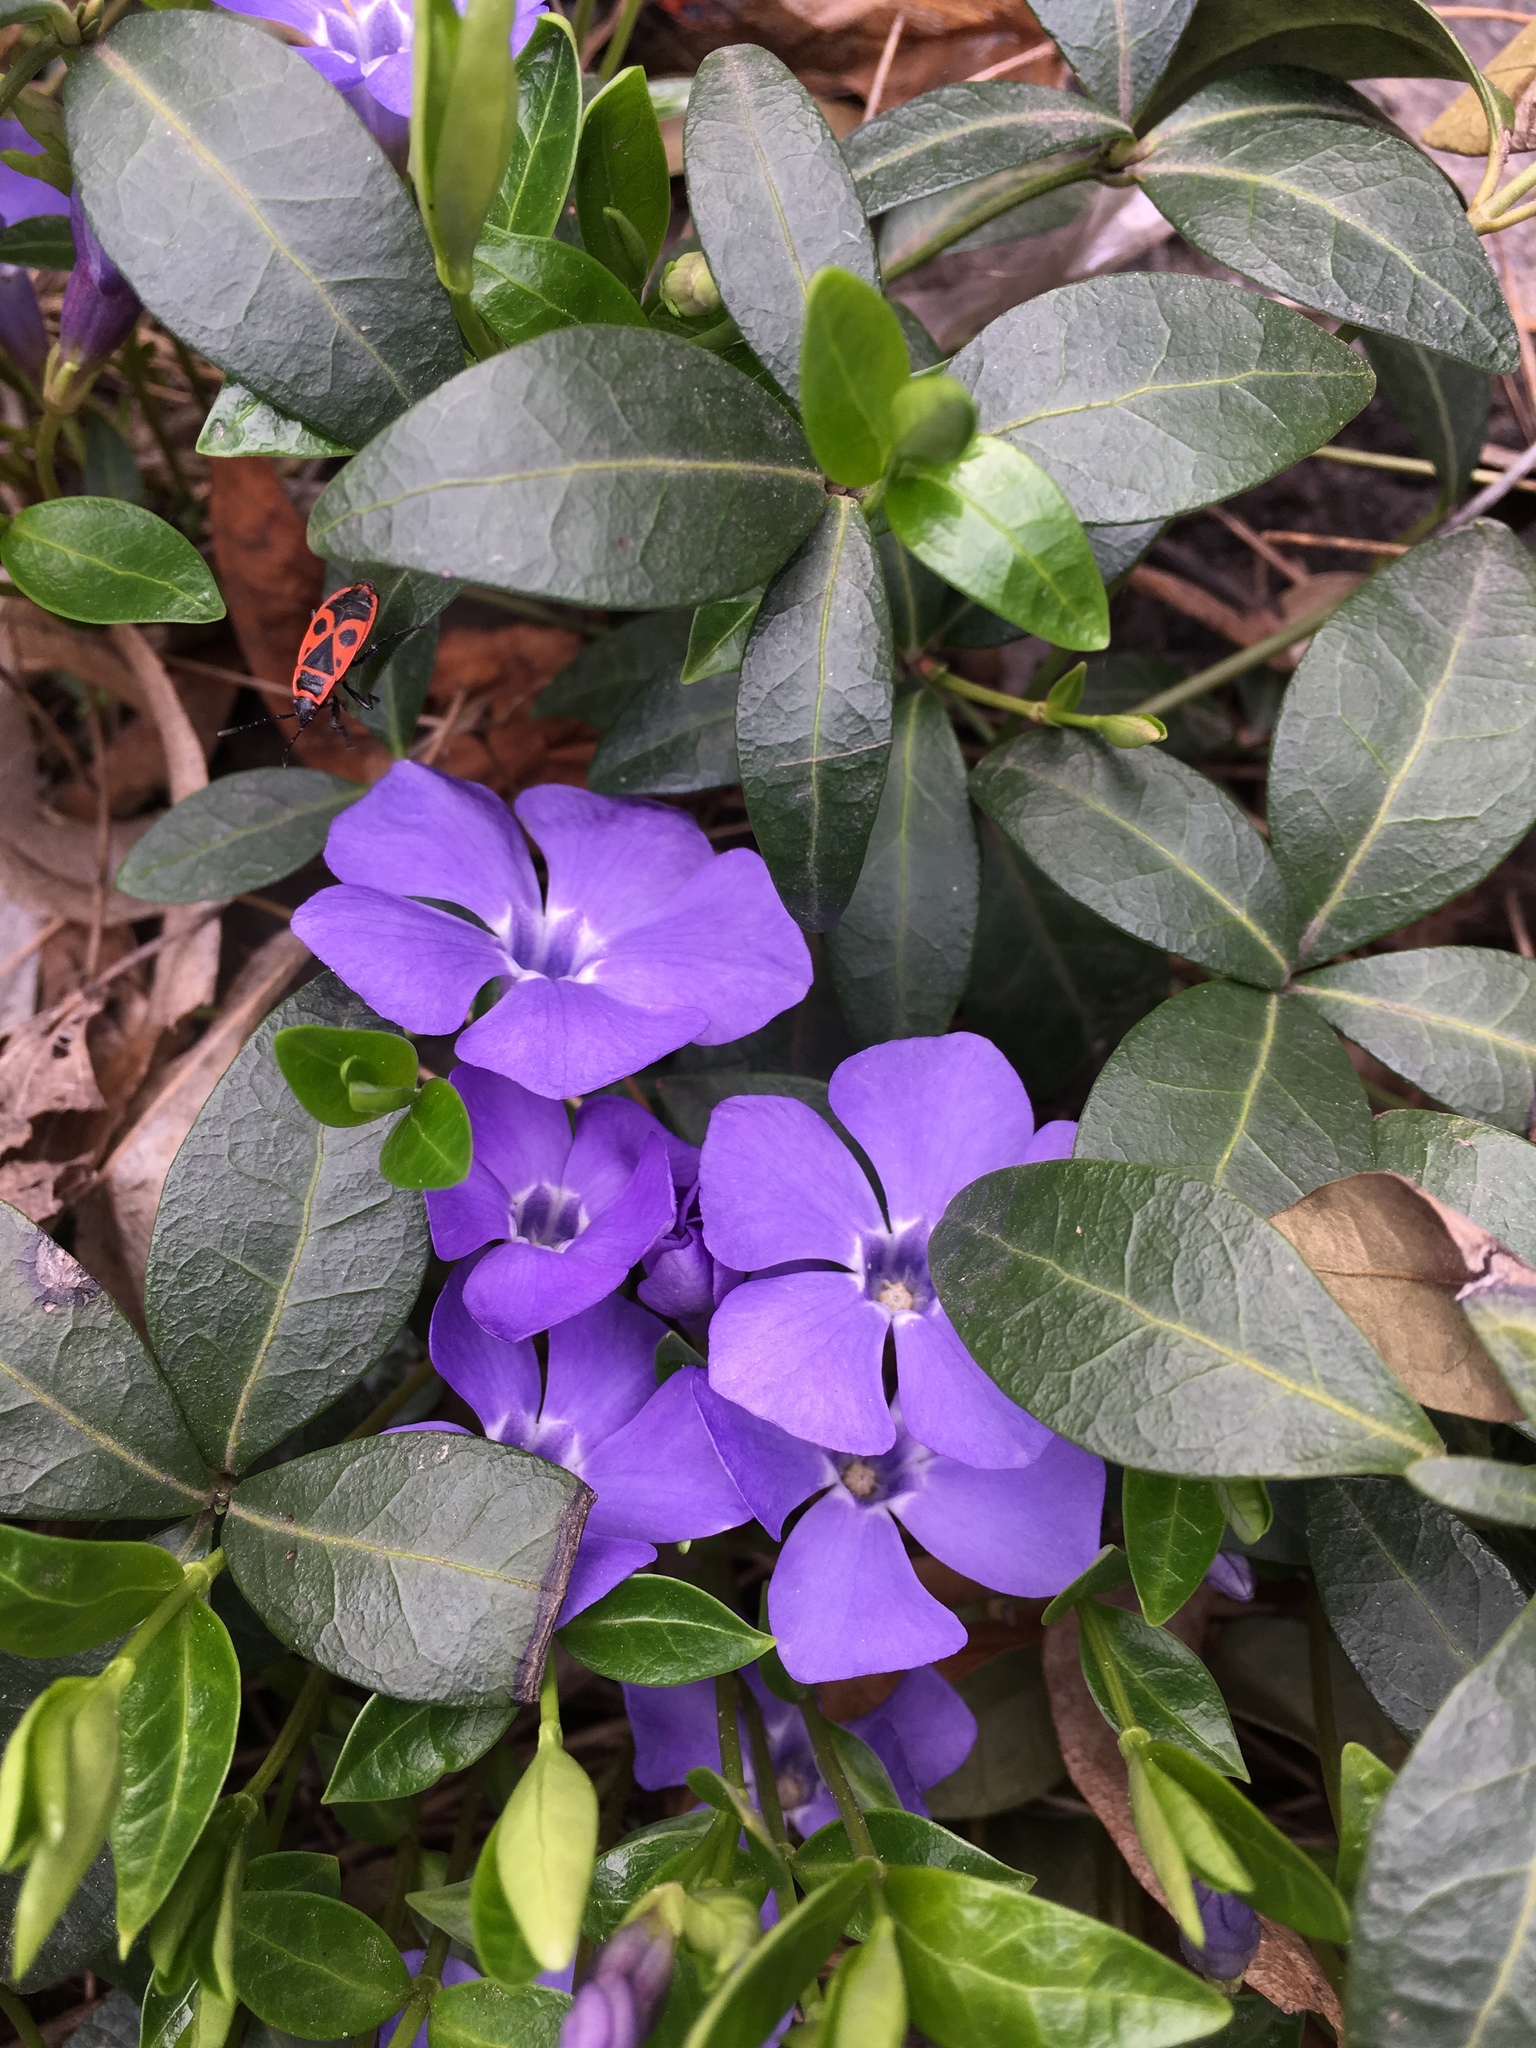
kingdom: Plantae
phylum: Tracheophyta
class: Magnoliopsida
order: Gentianales
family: Apocynaceae
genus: Vinca
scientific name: Vinca minor
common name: Lesser periwinkle
